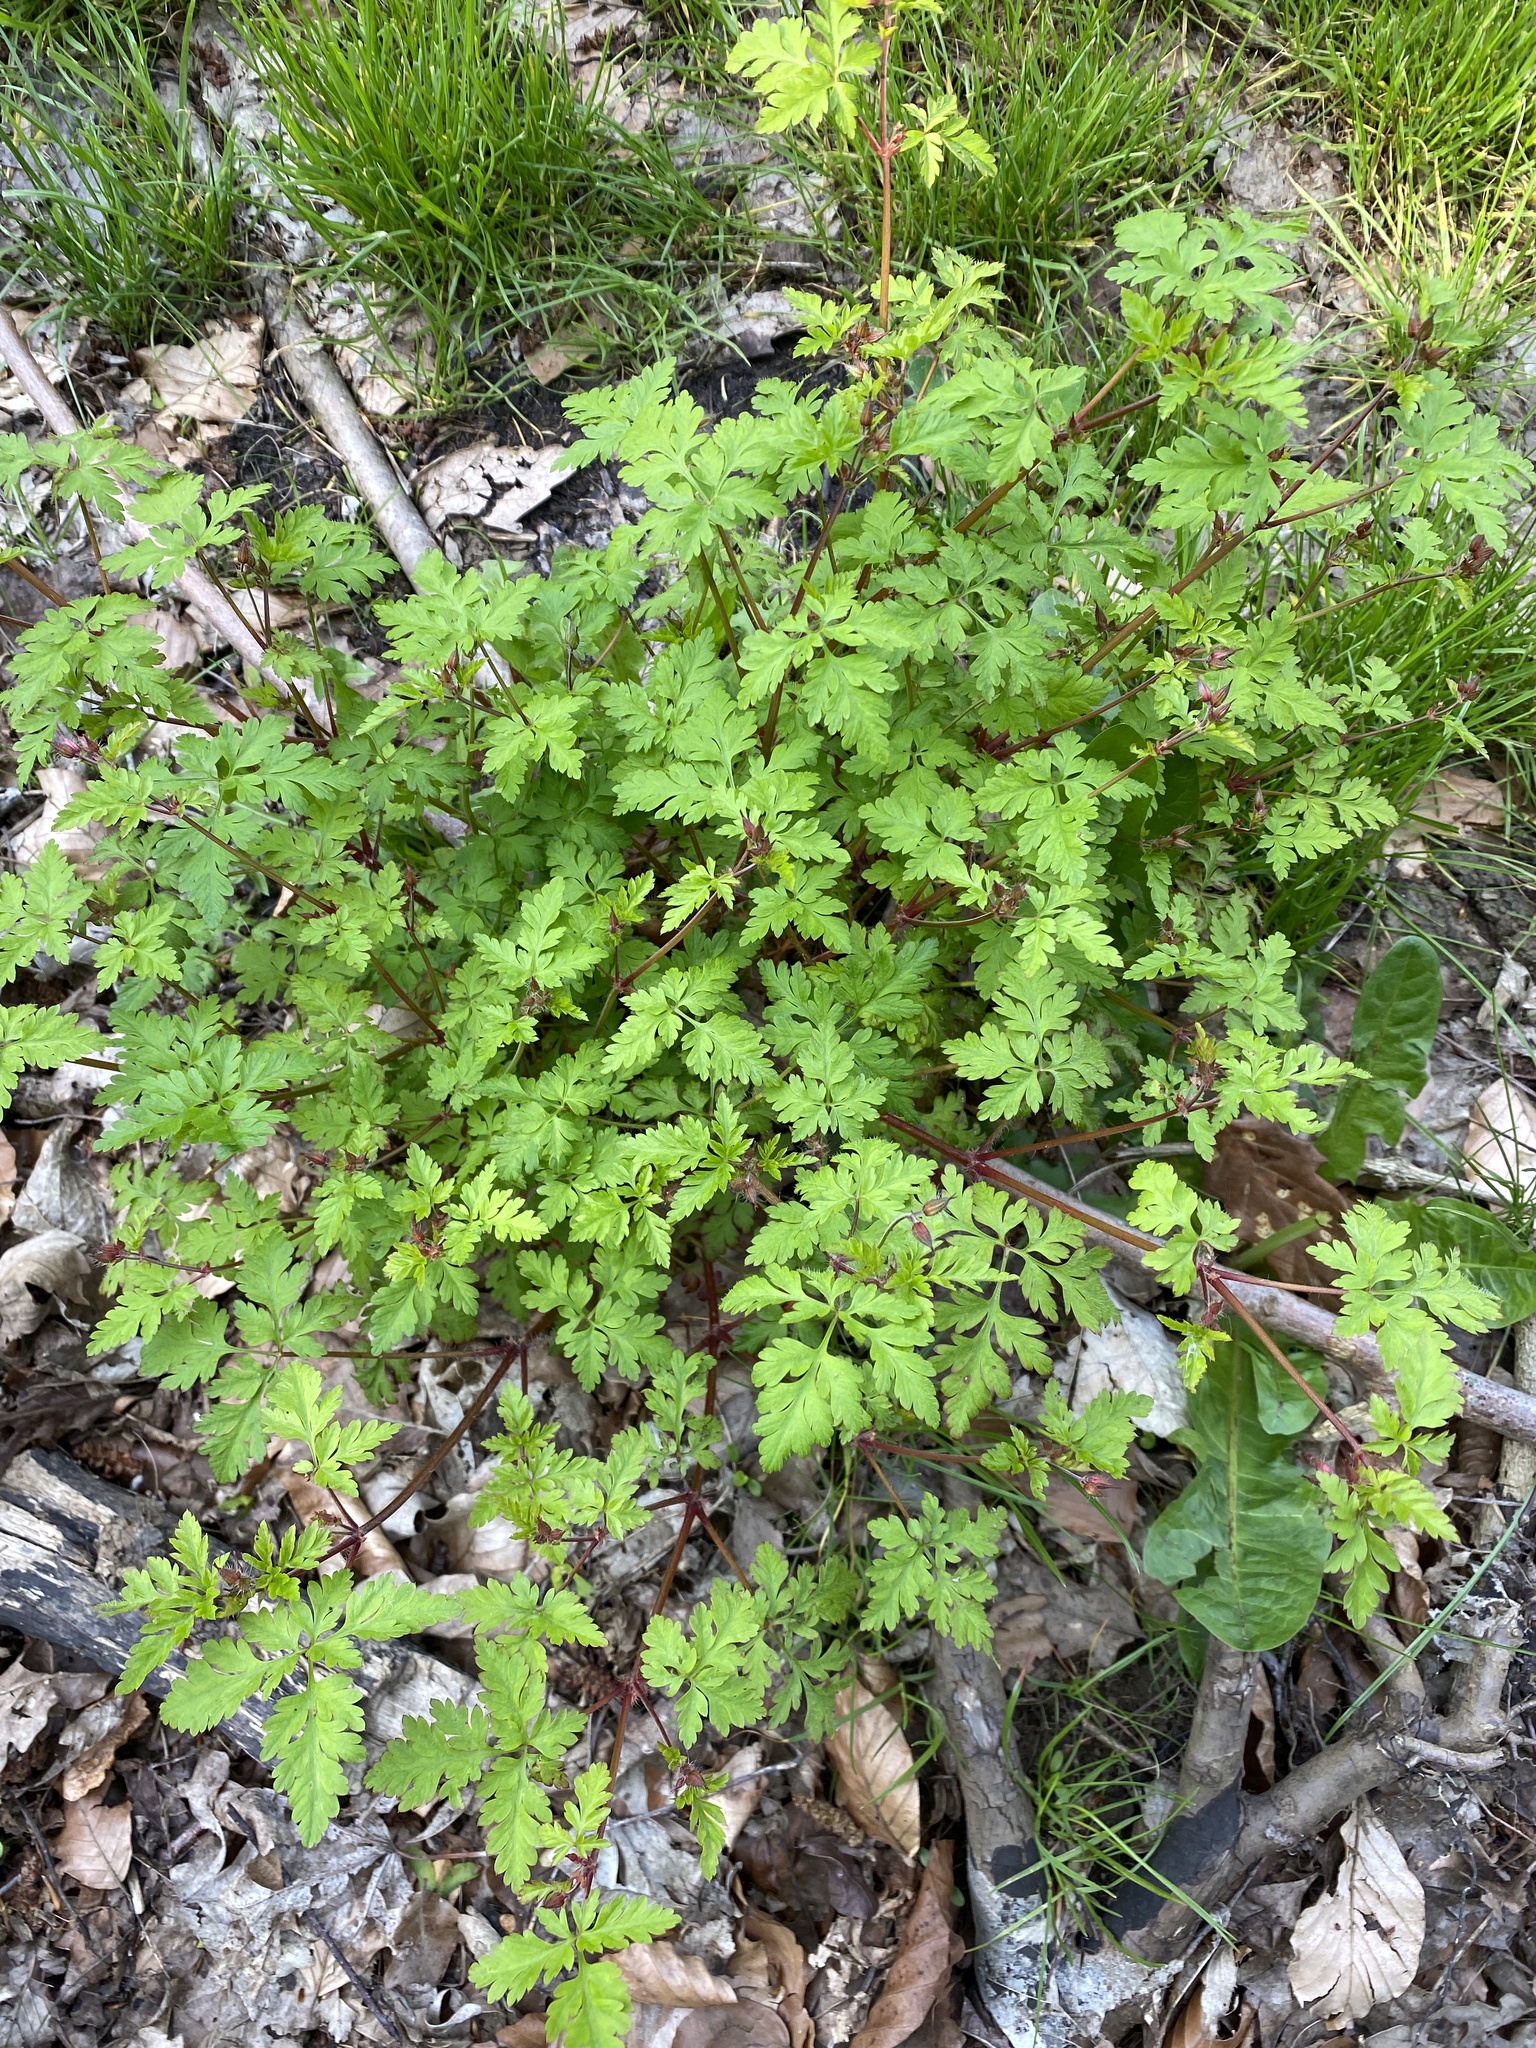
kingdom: Plantae
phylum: Tracheophyta
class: Magnoliopsida
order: Geraniales
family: Geraniaceae
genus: Geranium
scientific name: Geranium robertianum
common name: Herb-robert
